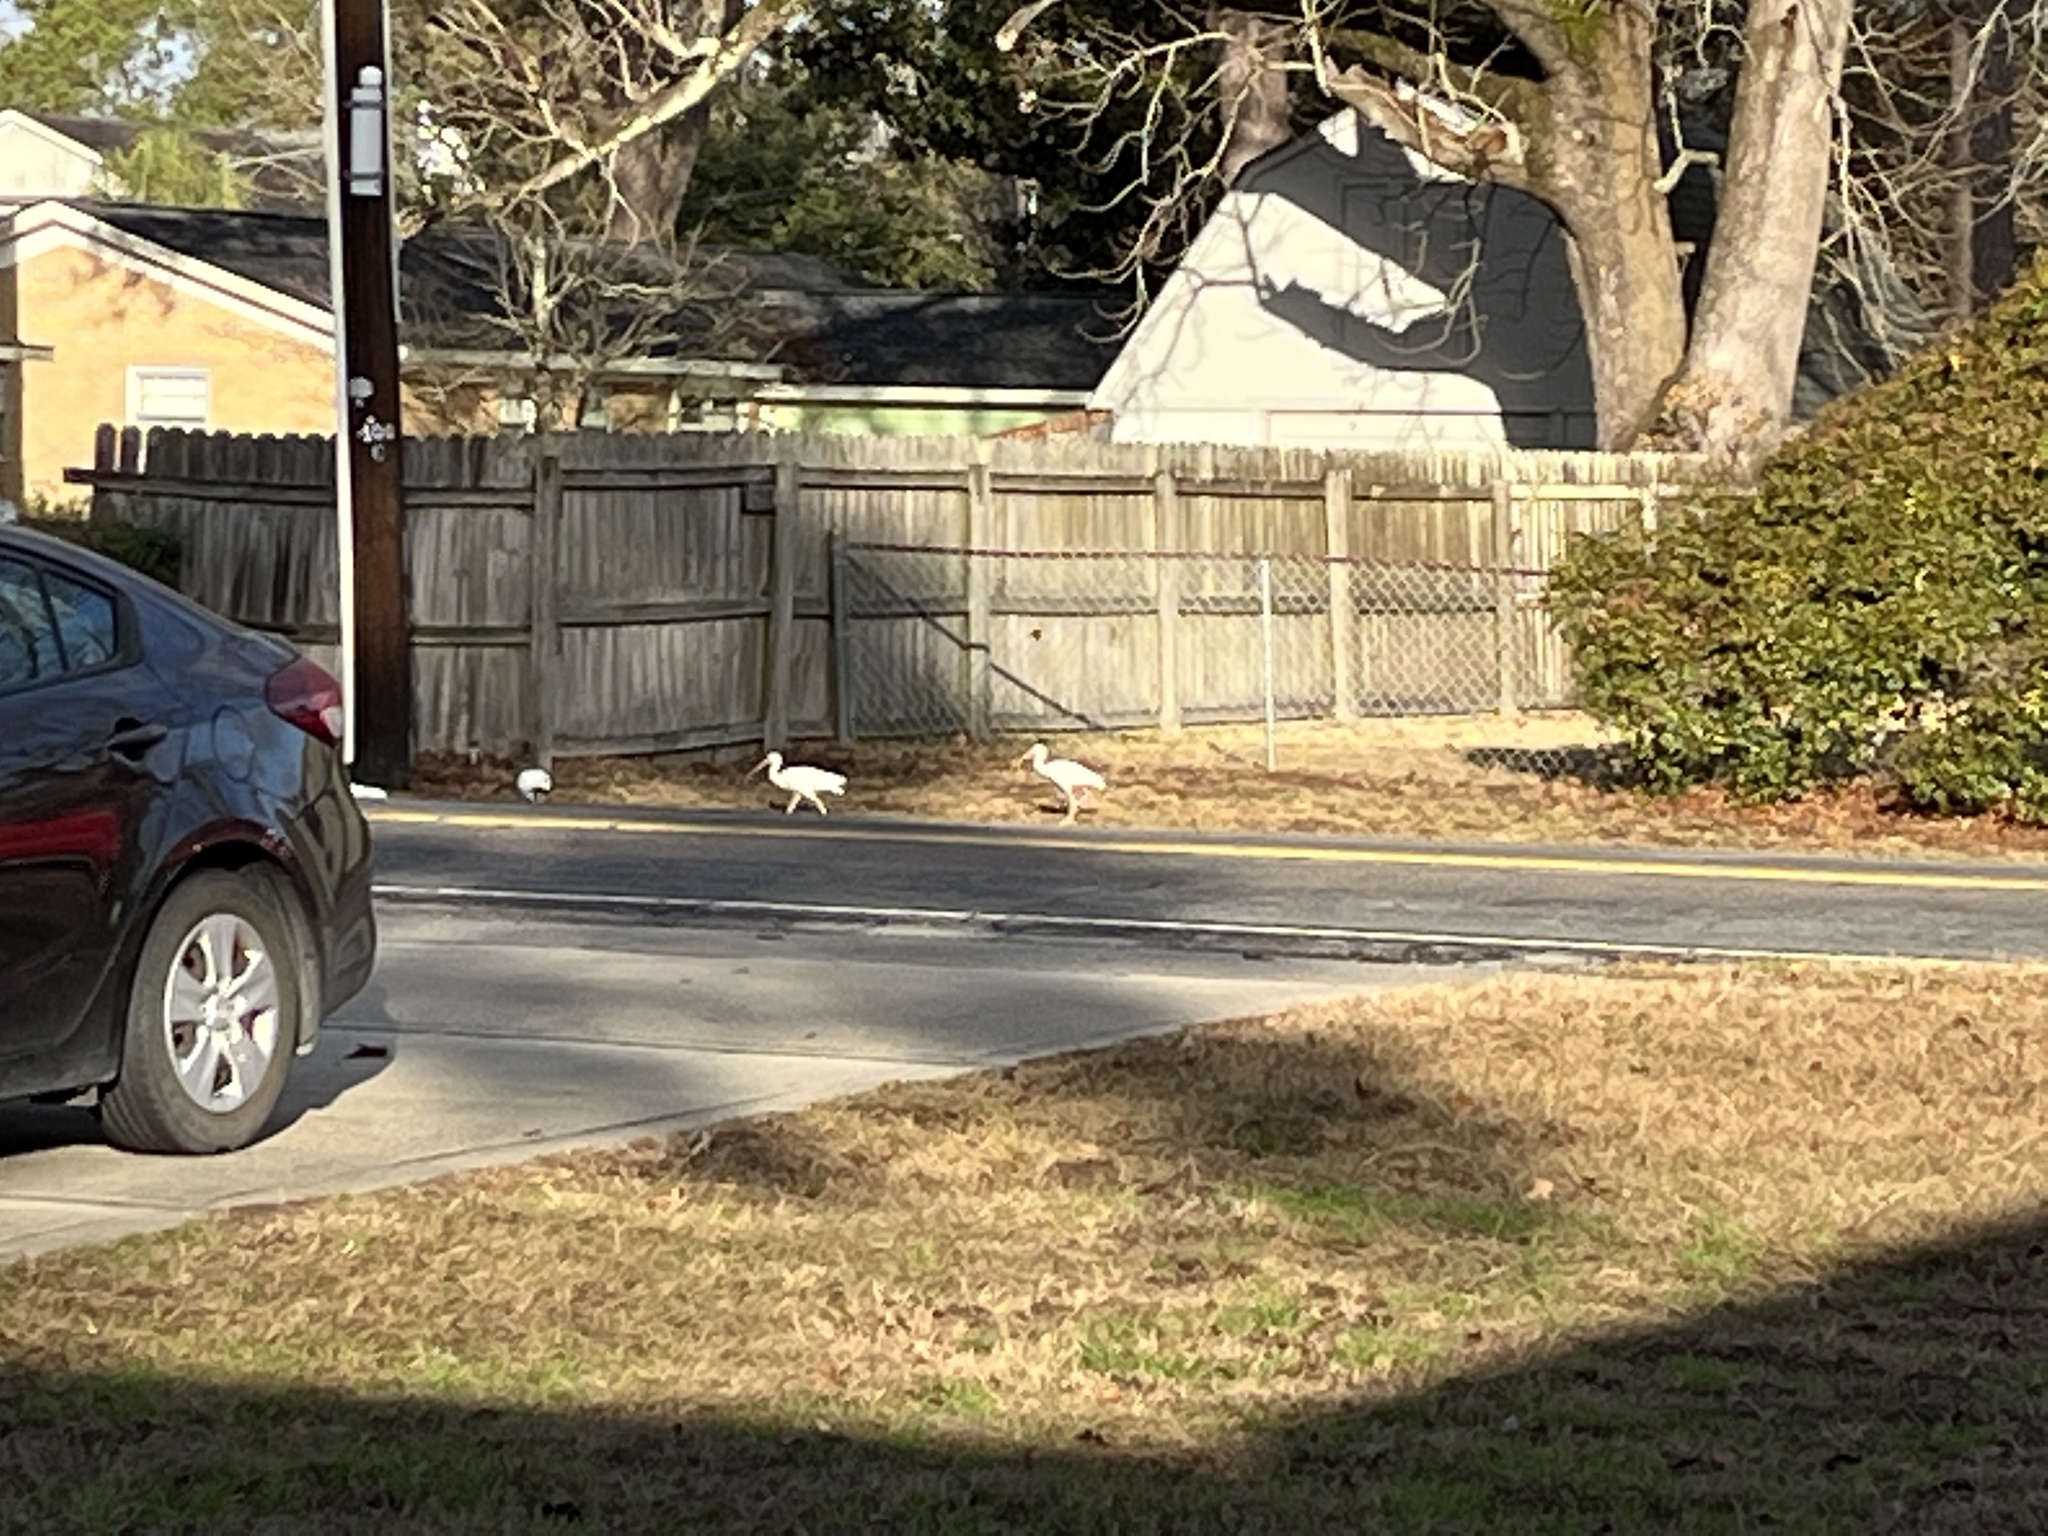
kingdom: Animalia
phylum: Chordata
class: Aves
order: Pelecaniformes
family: Threskiornithidae
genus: Eudocimus
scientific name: Eudocimus albus
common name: White ibis
